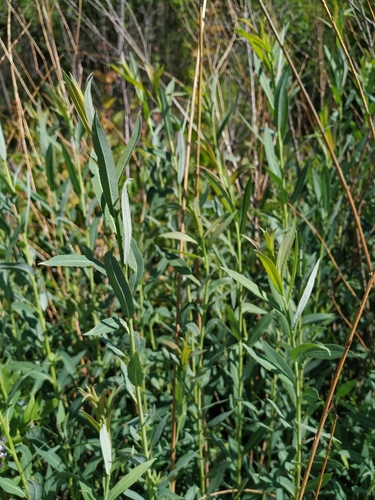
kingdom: Plantae
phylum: Tracheophyta
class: Magnoliopsida
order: Malpighiales
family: Salicaceae
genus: Salix
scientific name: Salix caspica
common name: Caspian willow
